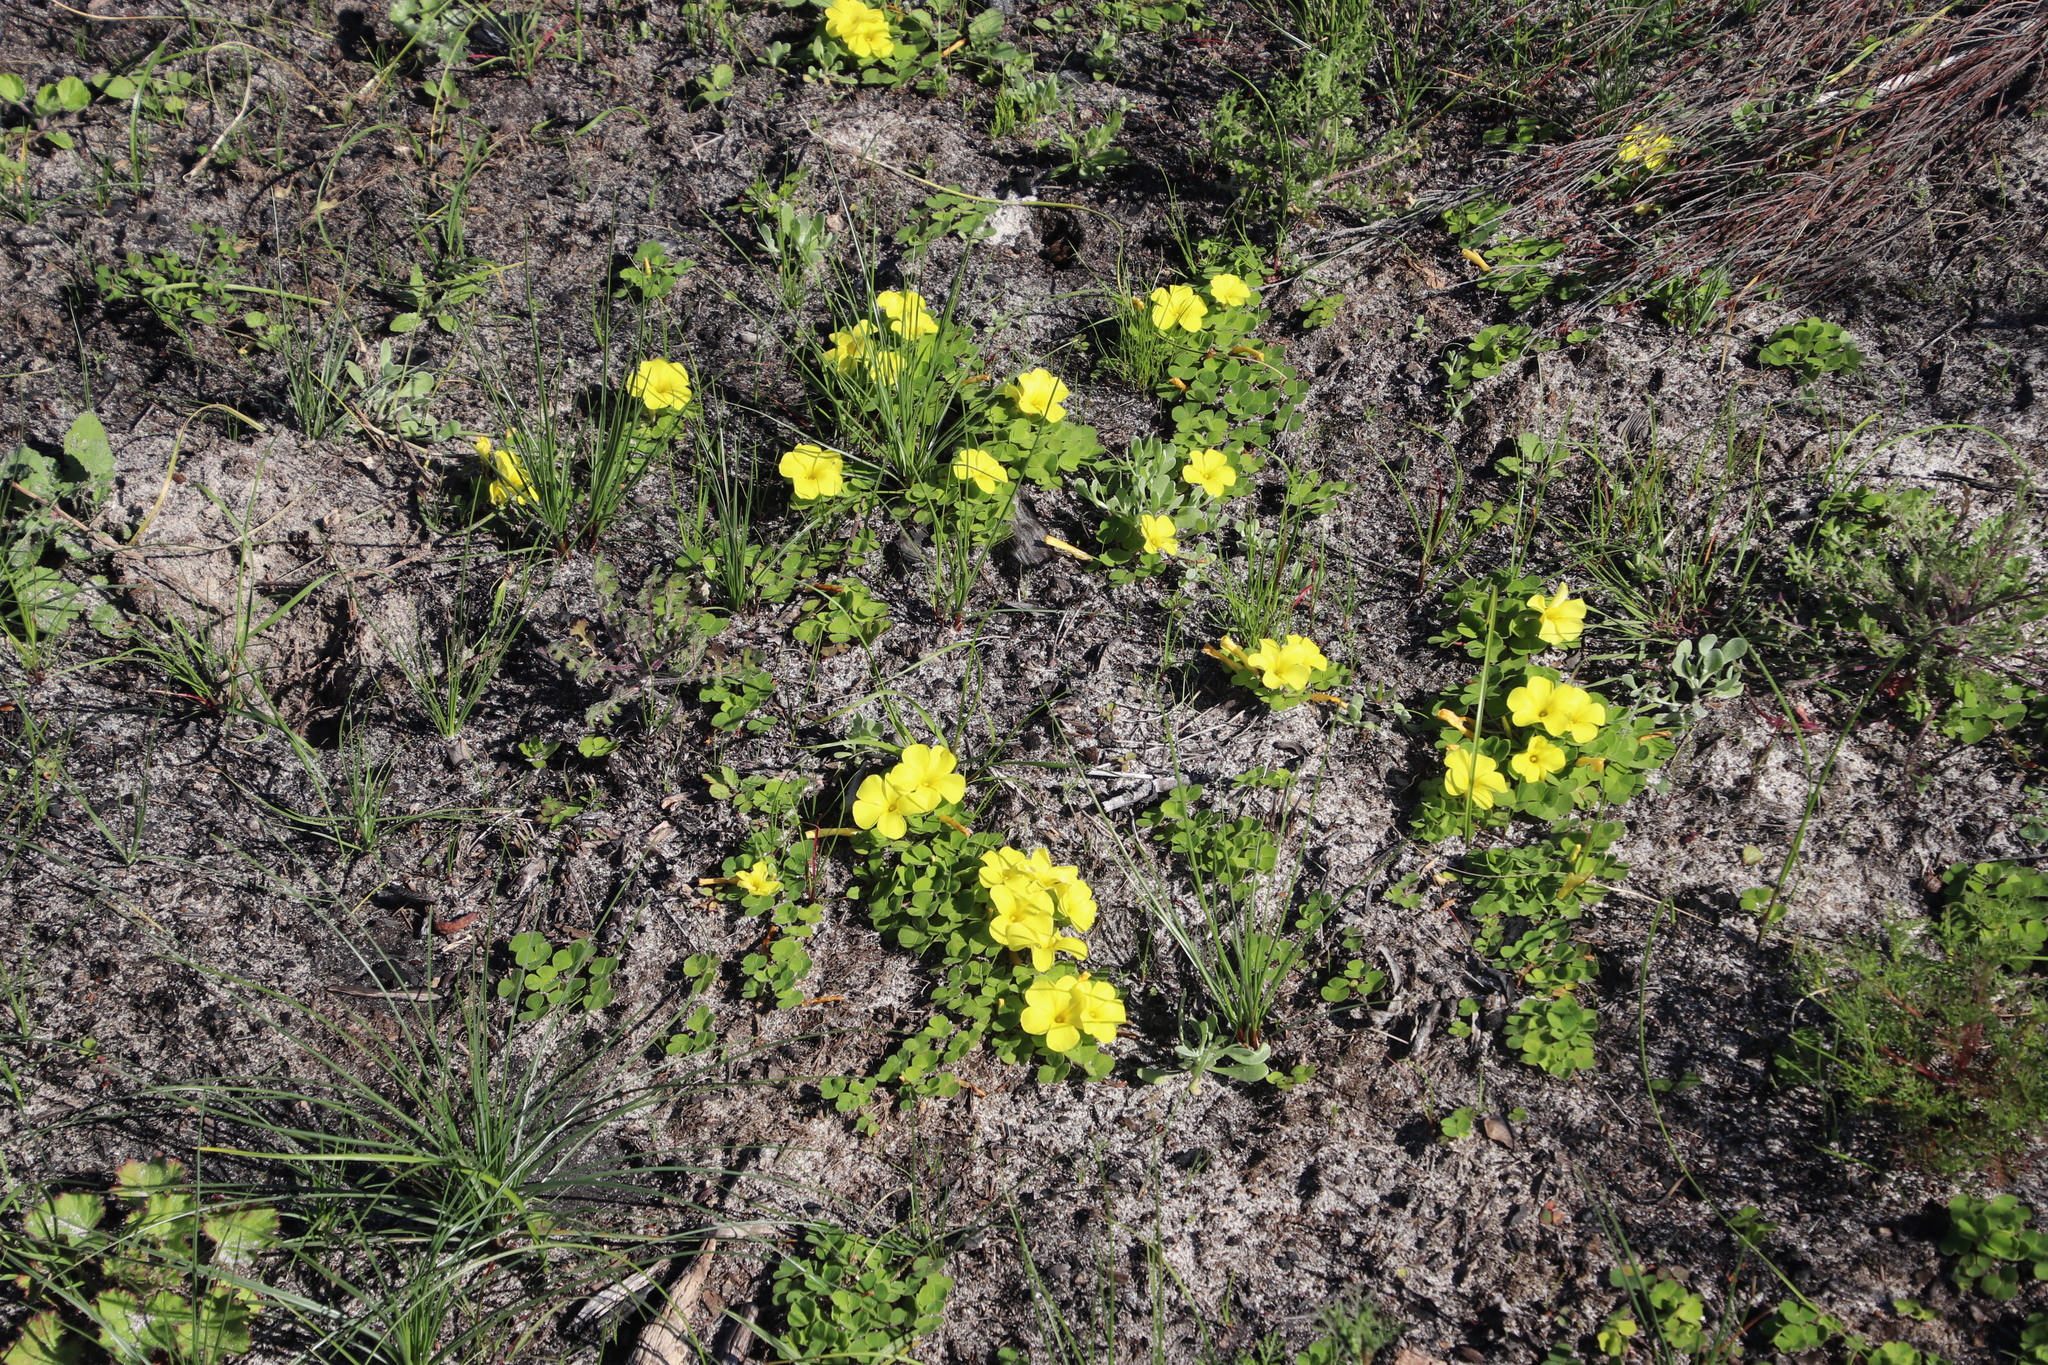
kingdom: Plantae
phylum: Tracheophyta
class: Magnoliopsida
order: Oxalidales
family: Oxalidaceae
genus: Oxalis
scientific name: Oxalis luteola
